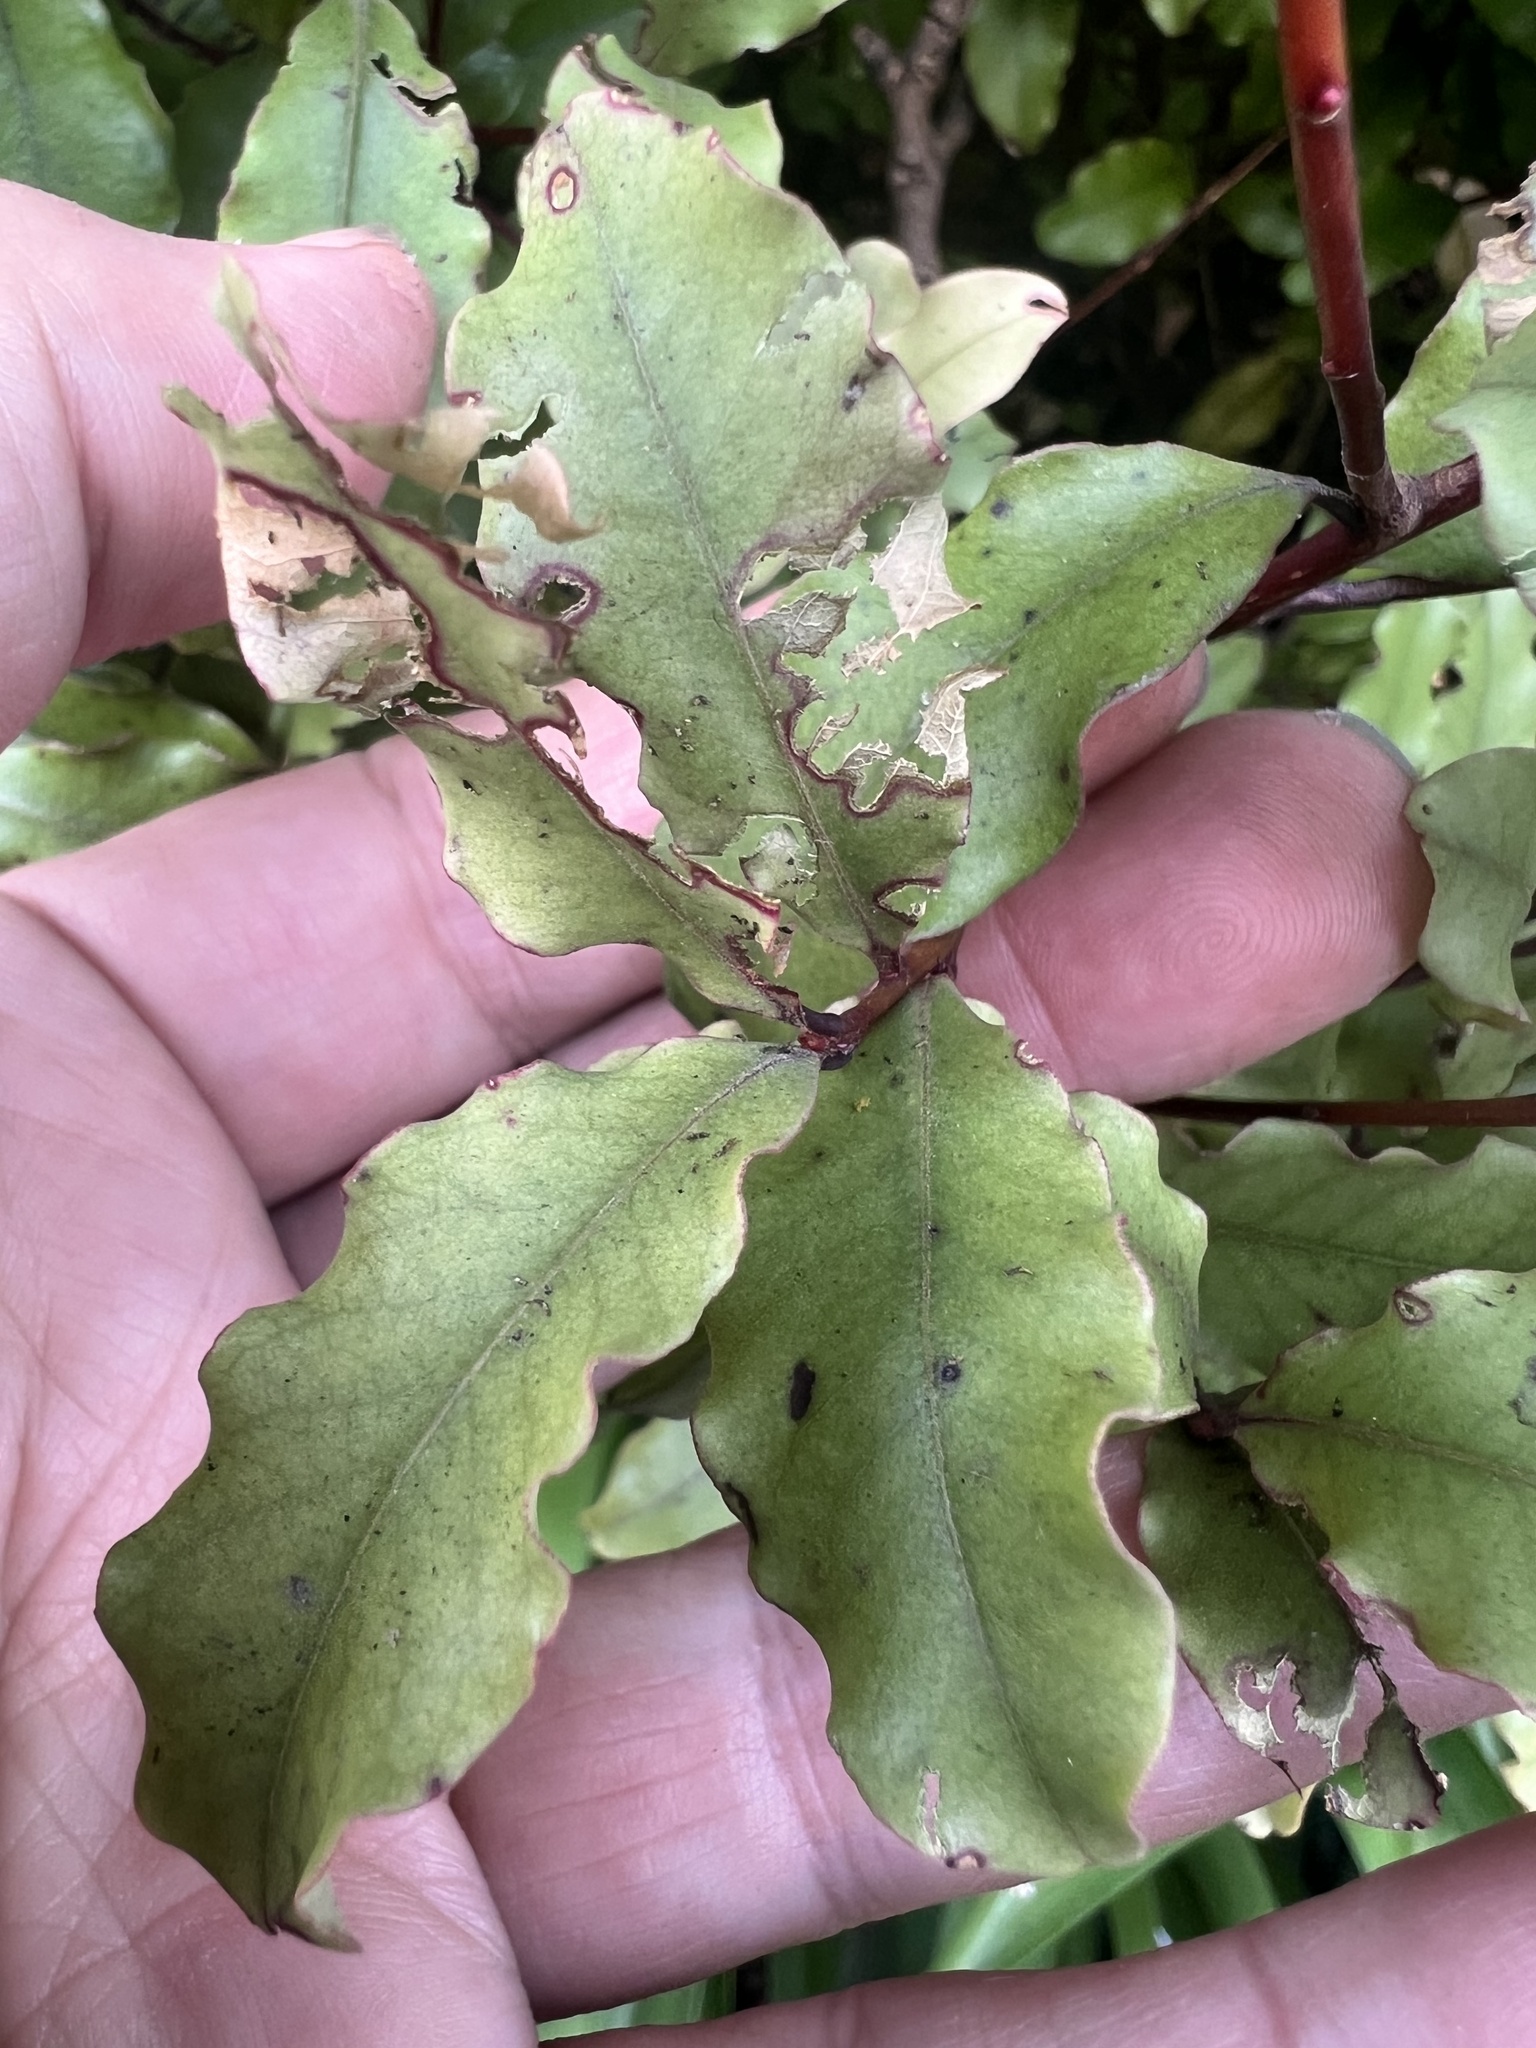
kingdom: Plantae
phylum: Tracheophyta
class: Magnoliopsida
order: Ericales
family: Primulaceae
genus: Myrsine
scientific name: Myrsine australis
